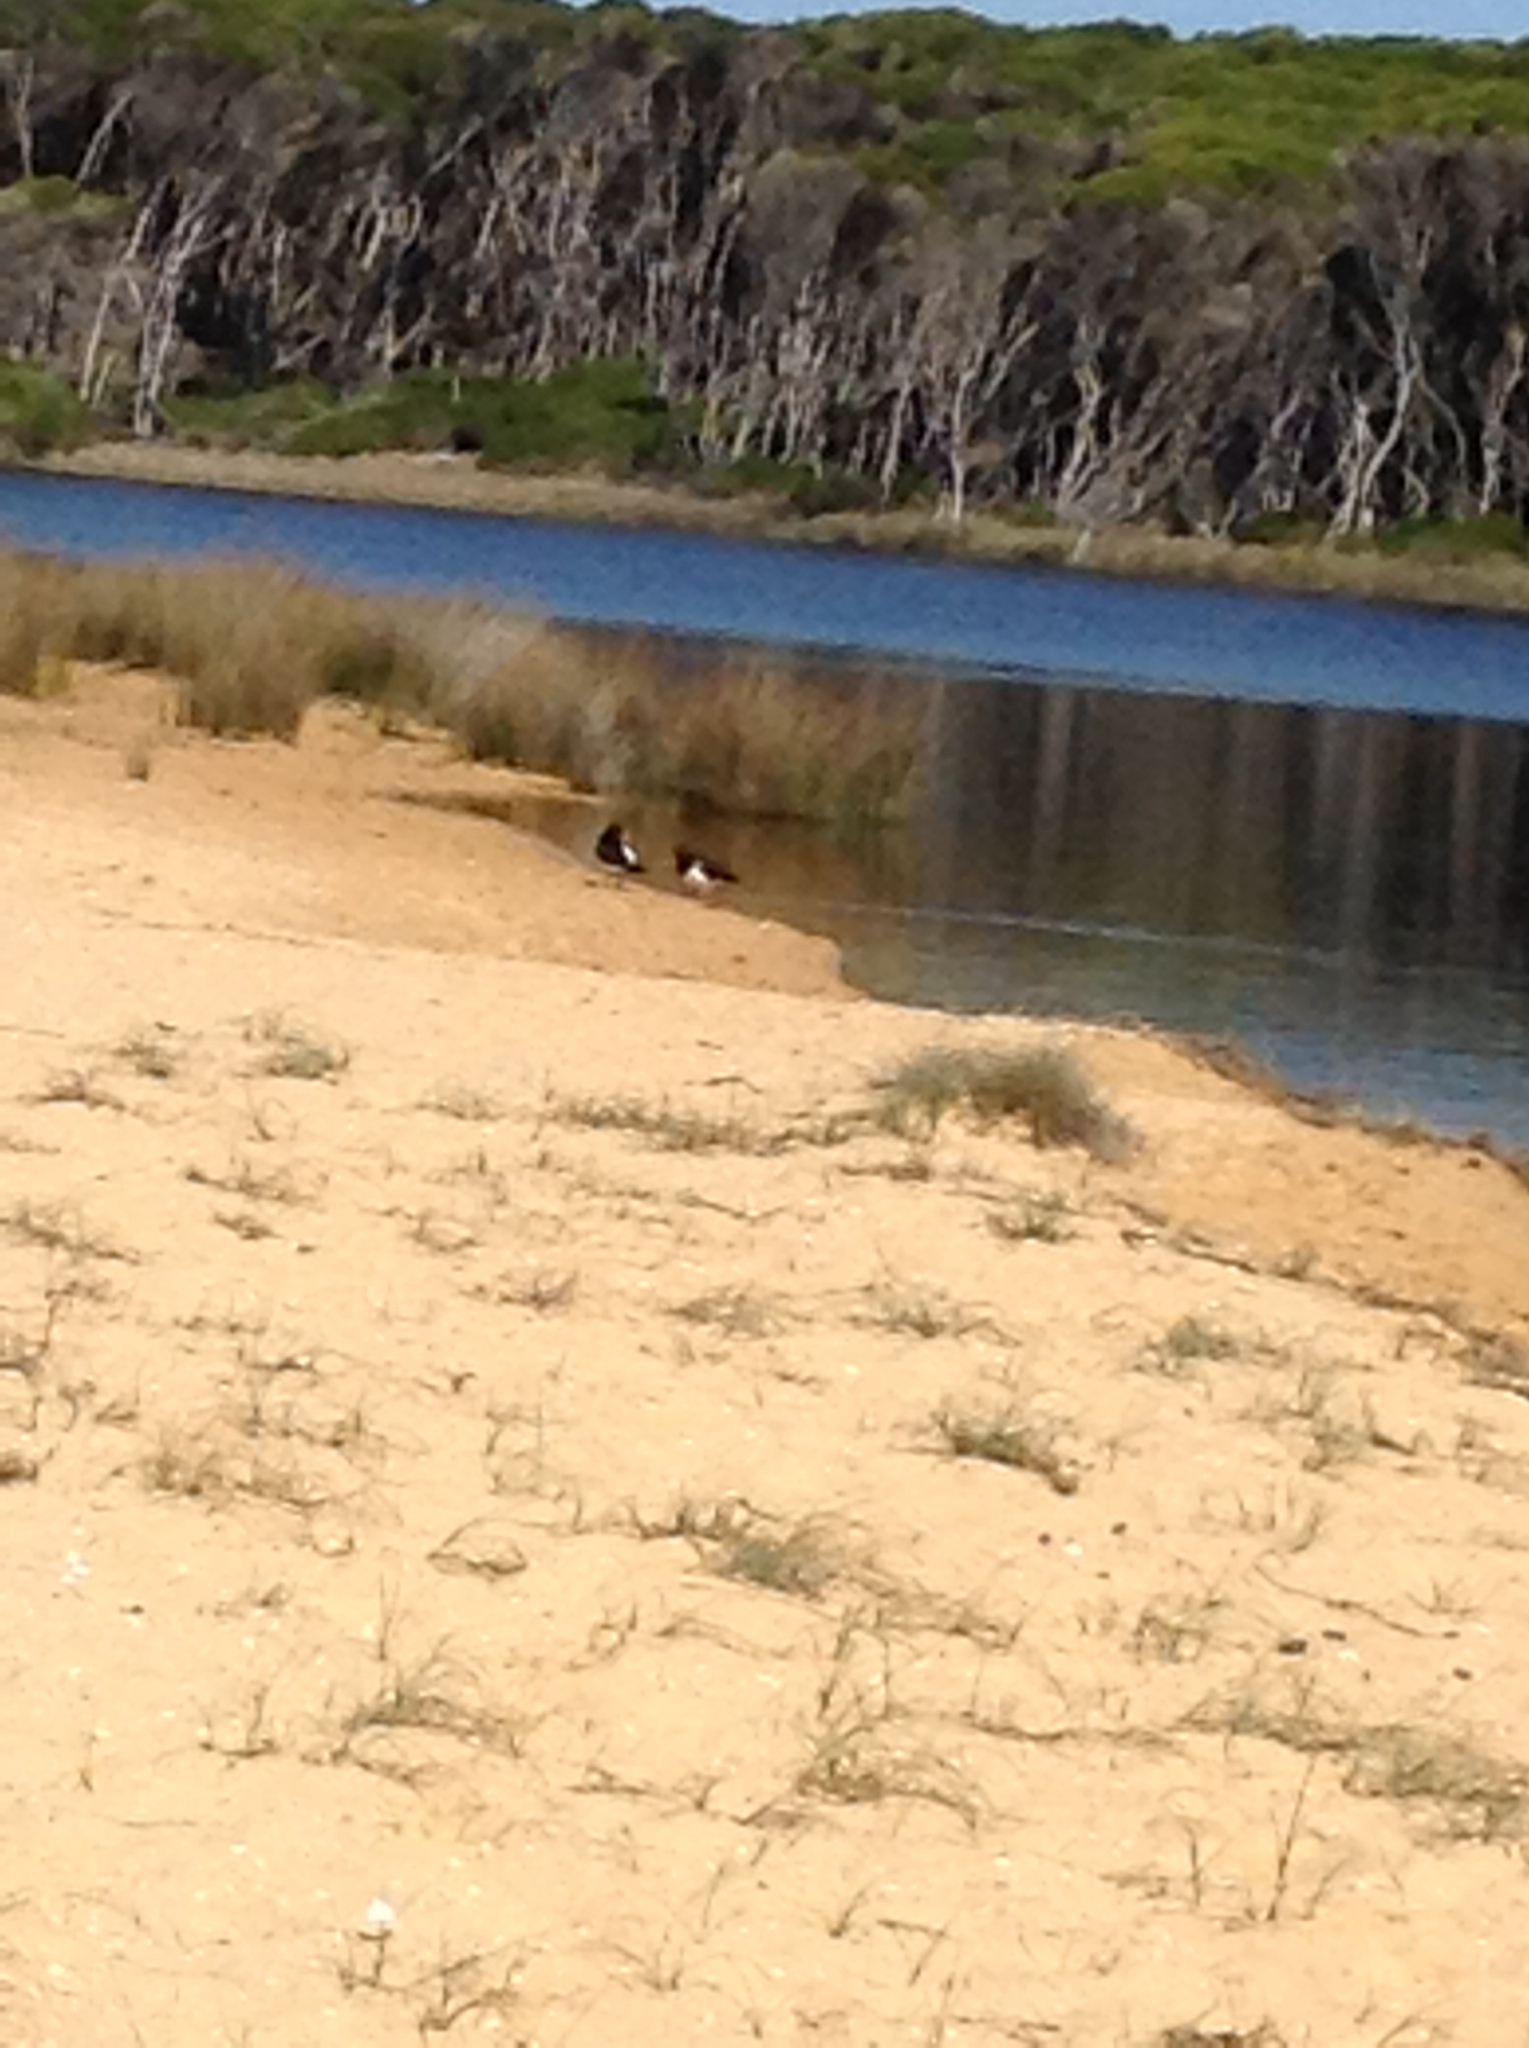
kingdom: Animalia
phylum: Chordata
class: Aves
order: Charadriiformes
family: Haematopodidae
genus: Haematopus
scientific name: Haematopus longirostris
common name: Pied oystercatcher
